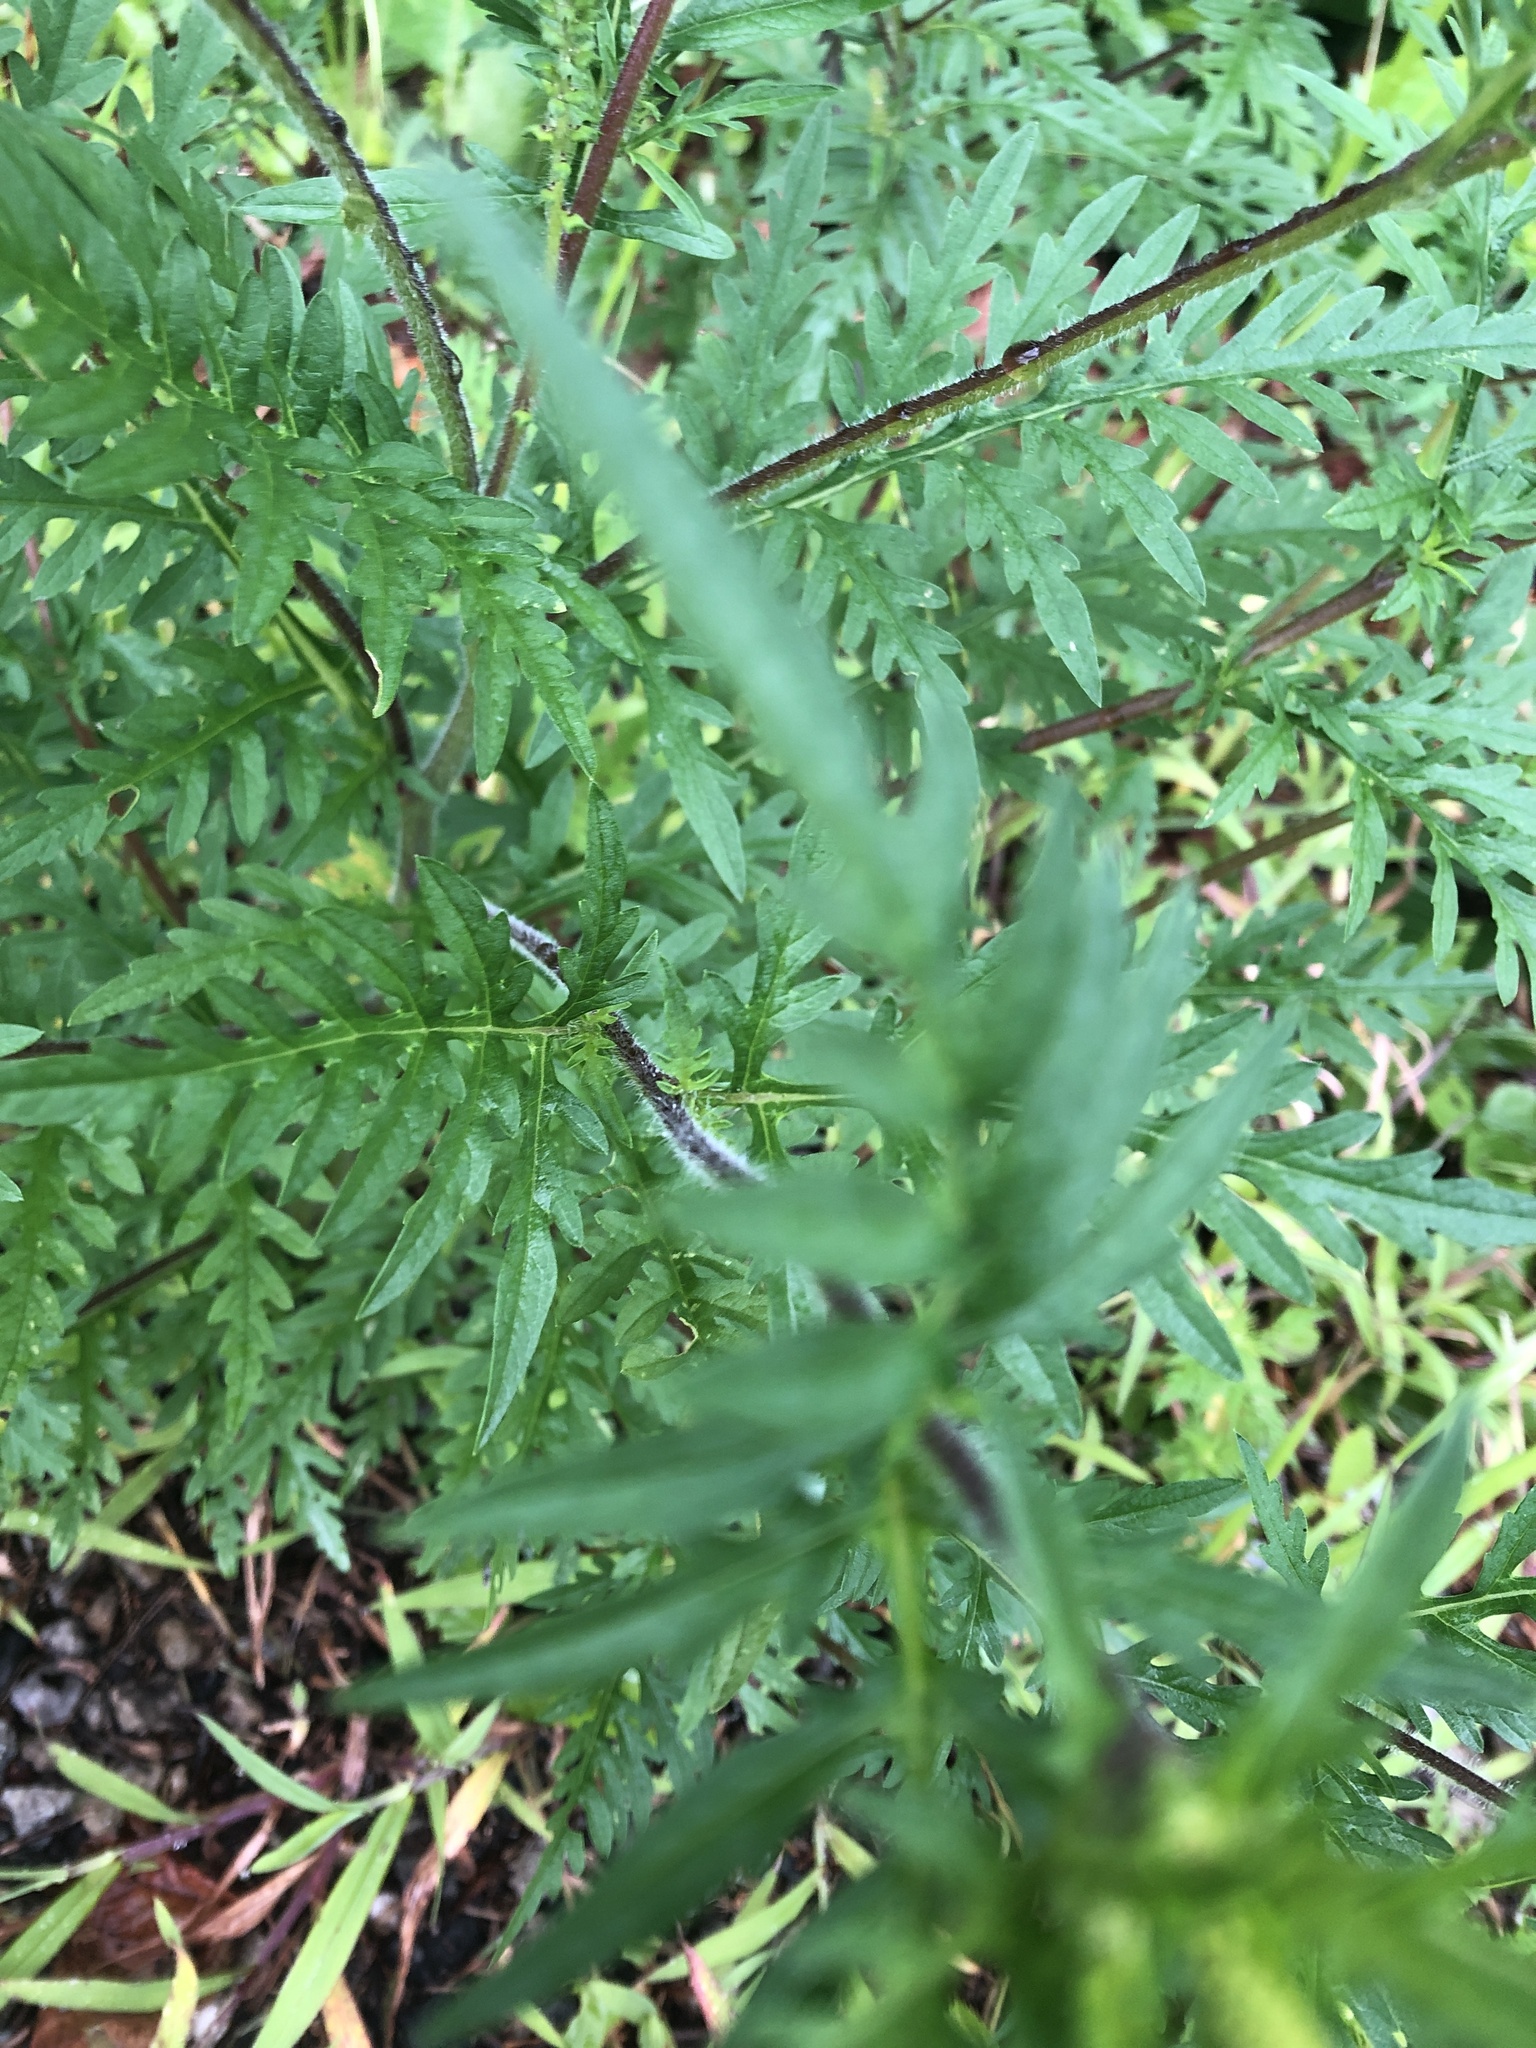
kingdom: Plantae
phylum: Tracheophyta
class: Magnoliopsida
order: Asterales
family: Asteraceae
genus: Ambrosia
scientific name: Ambrosia artemisiifolia
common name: Annual ragweed
